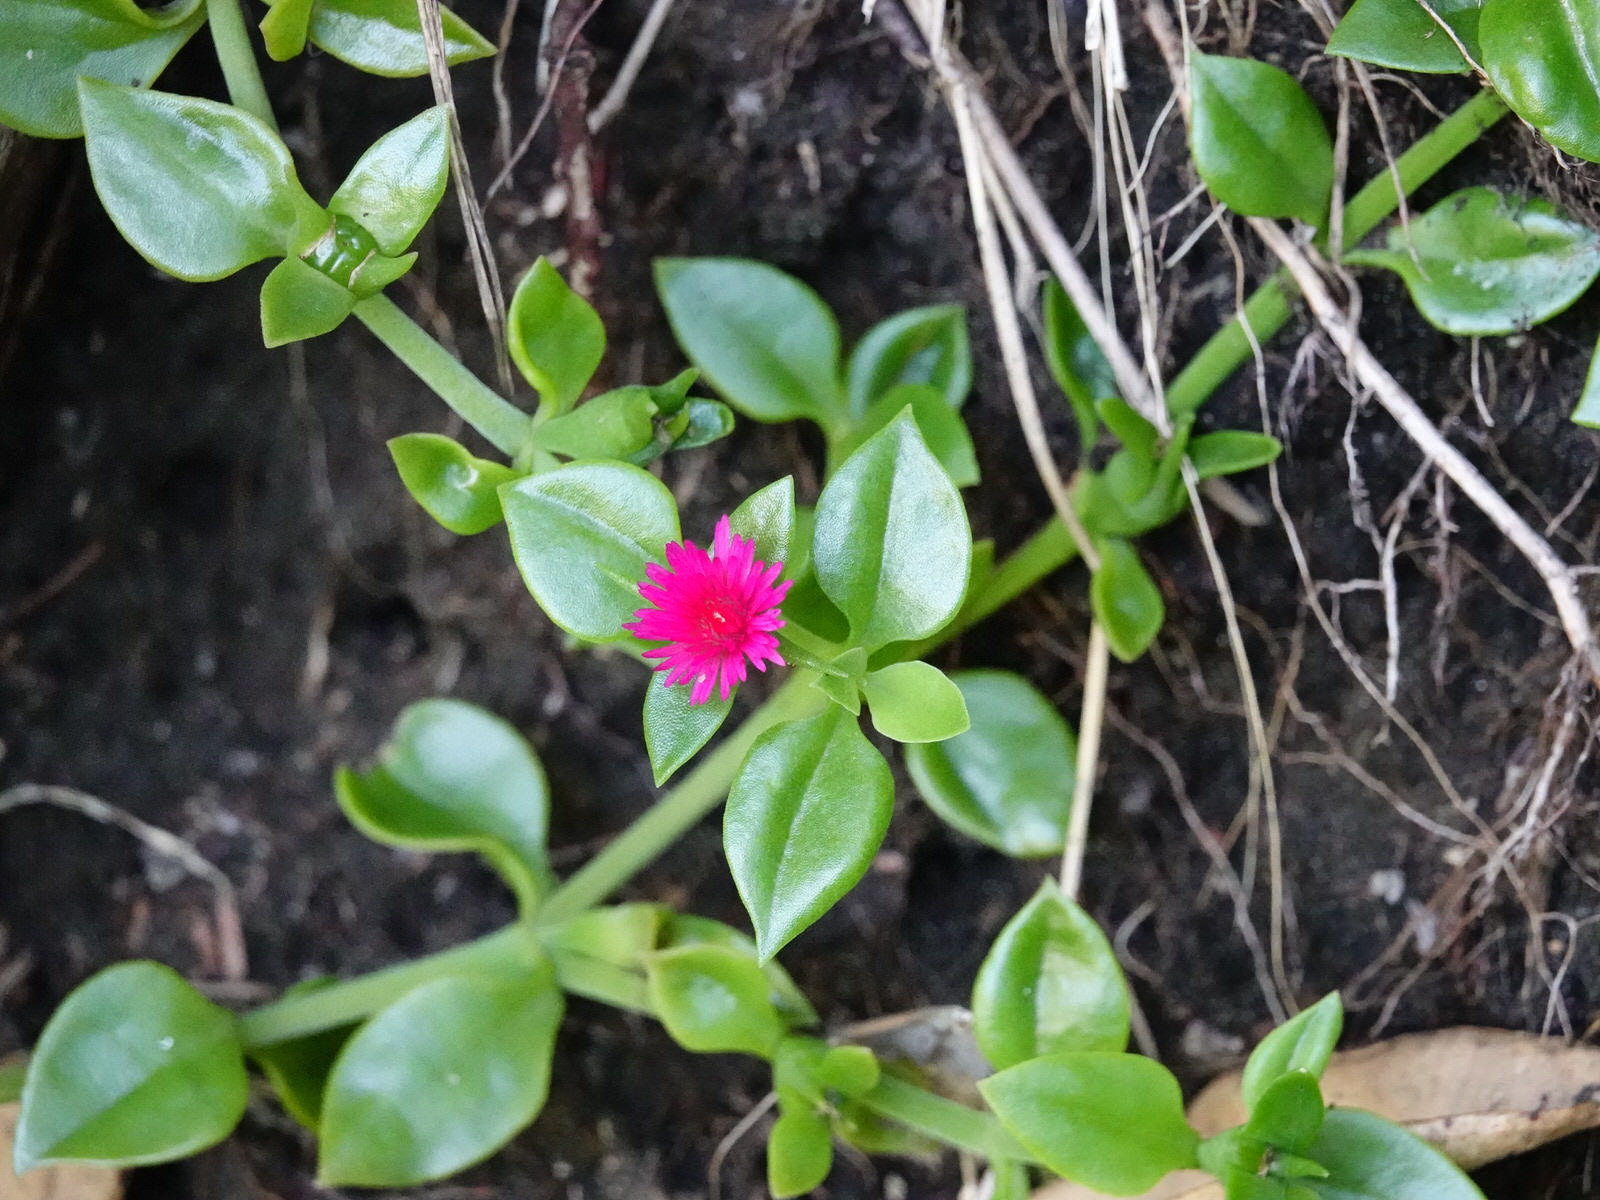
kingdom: Plantae
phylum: Tracheophyta
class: Magnoliopsida
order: Caryophyllales
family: Aizoaceae
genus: Mesembryanthemum
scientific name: Mesembryanthemum cordifolium
